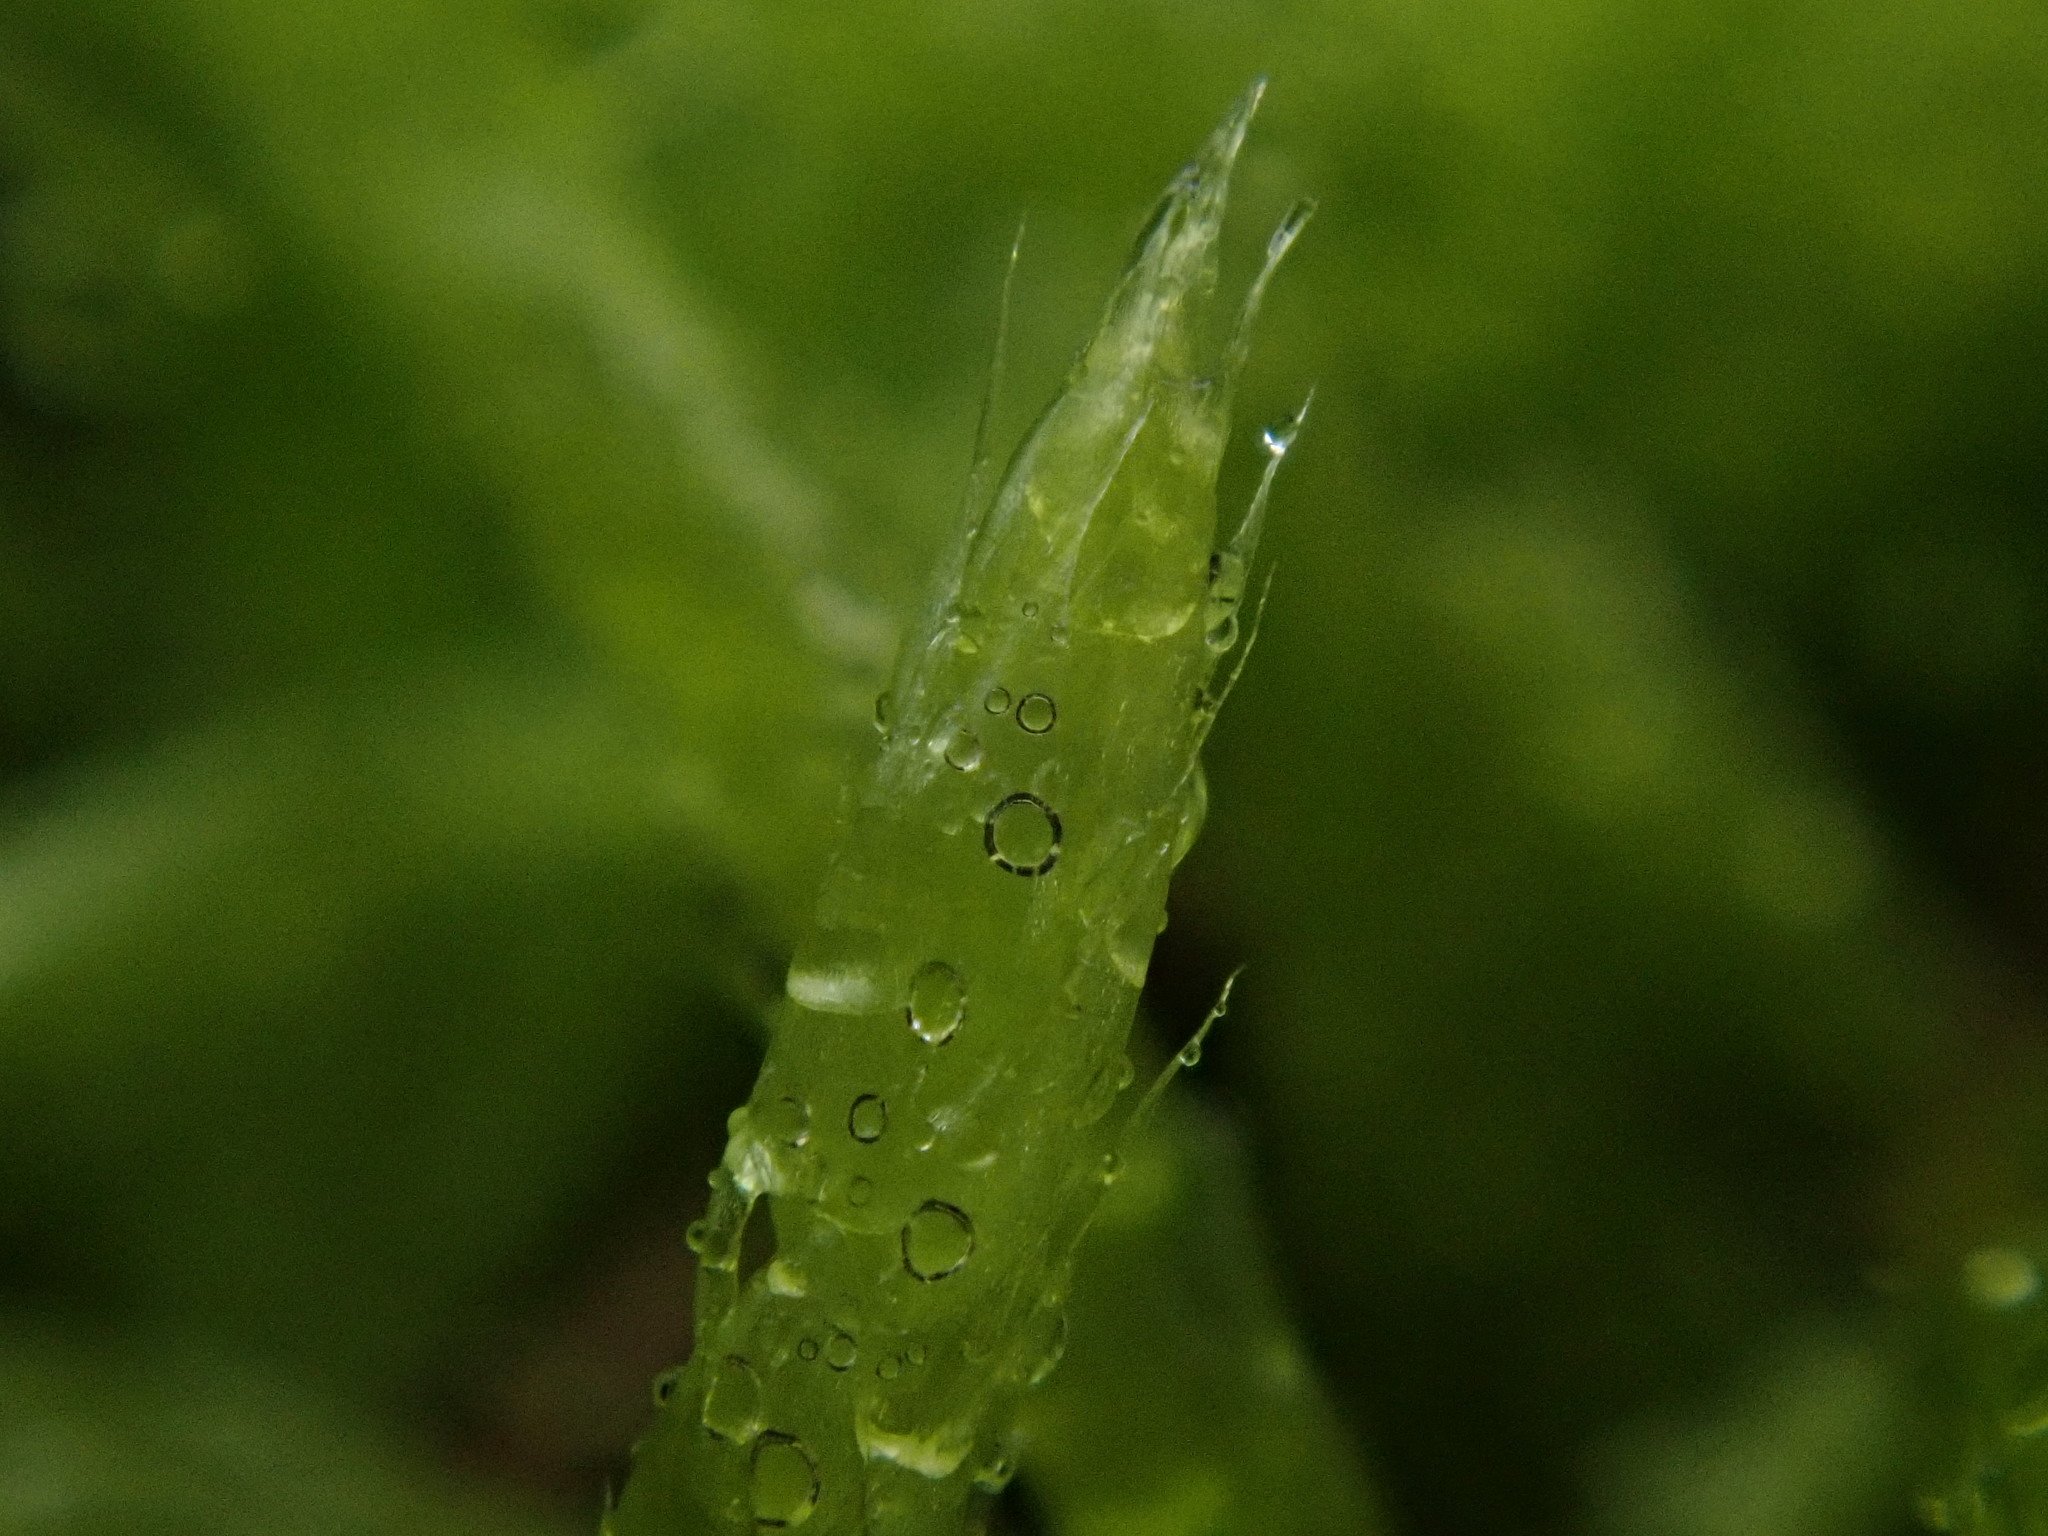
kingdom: Plantae
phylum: Bryophyta
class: Bryopsida
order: Hypnales
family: Brachytheciaceae
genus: Brachythecium
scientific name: Brachythecium albicans
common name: Whitish ragged moss
